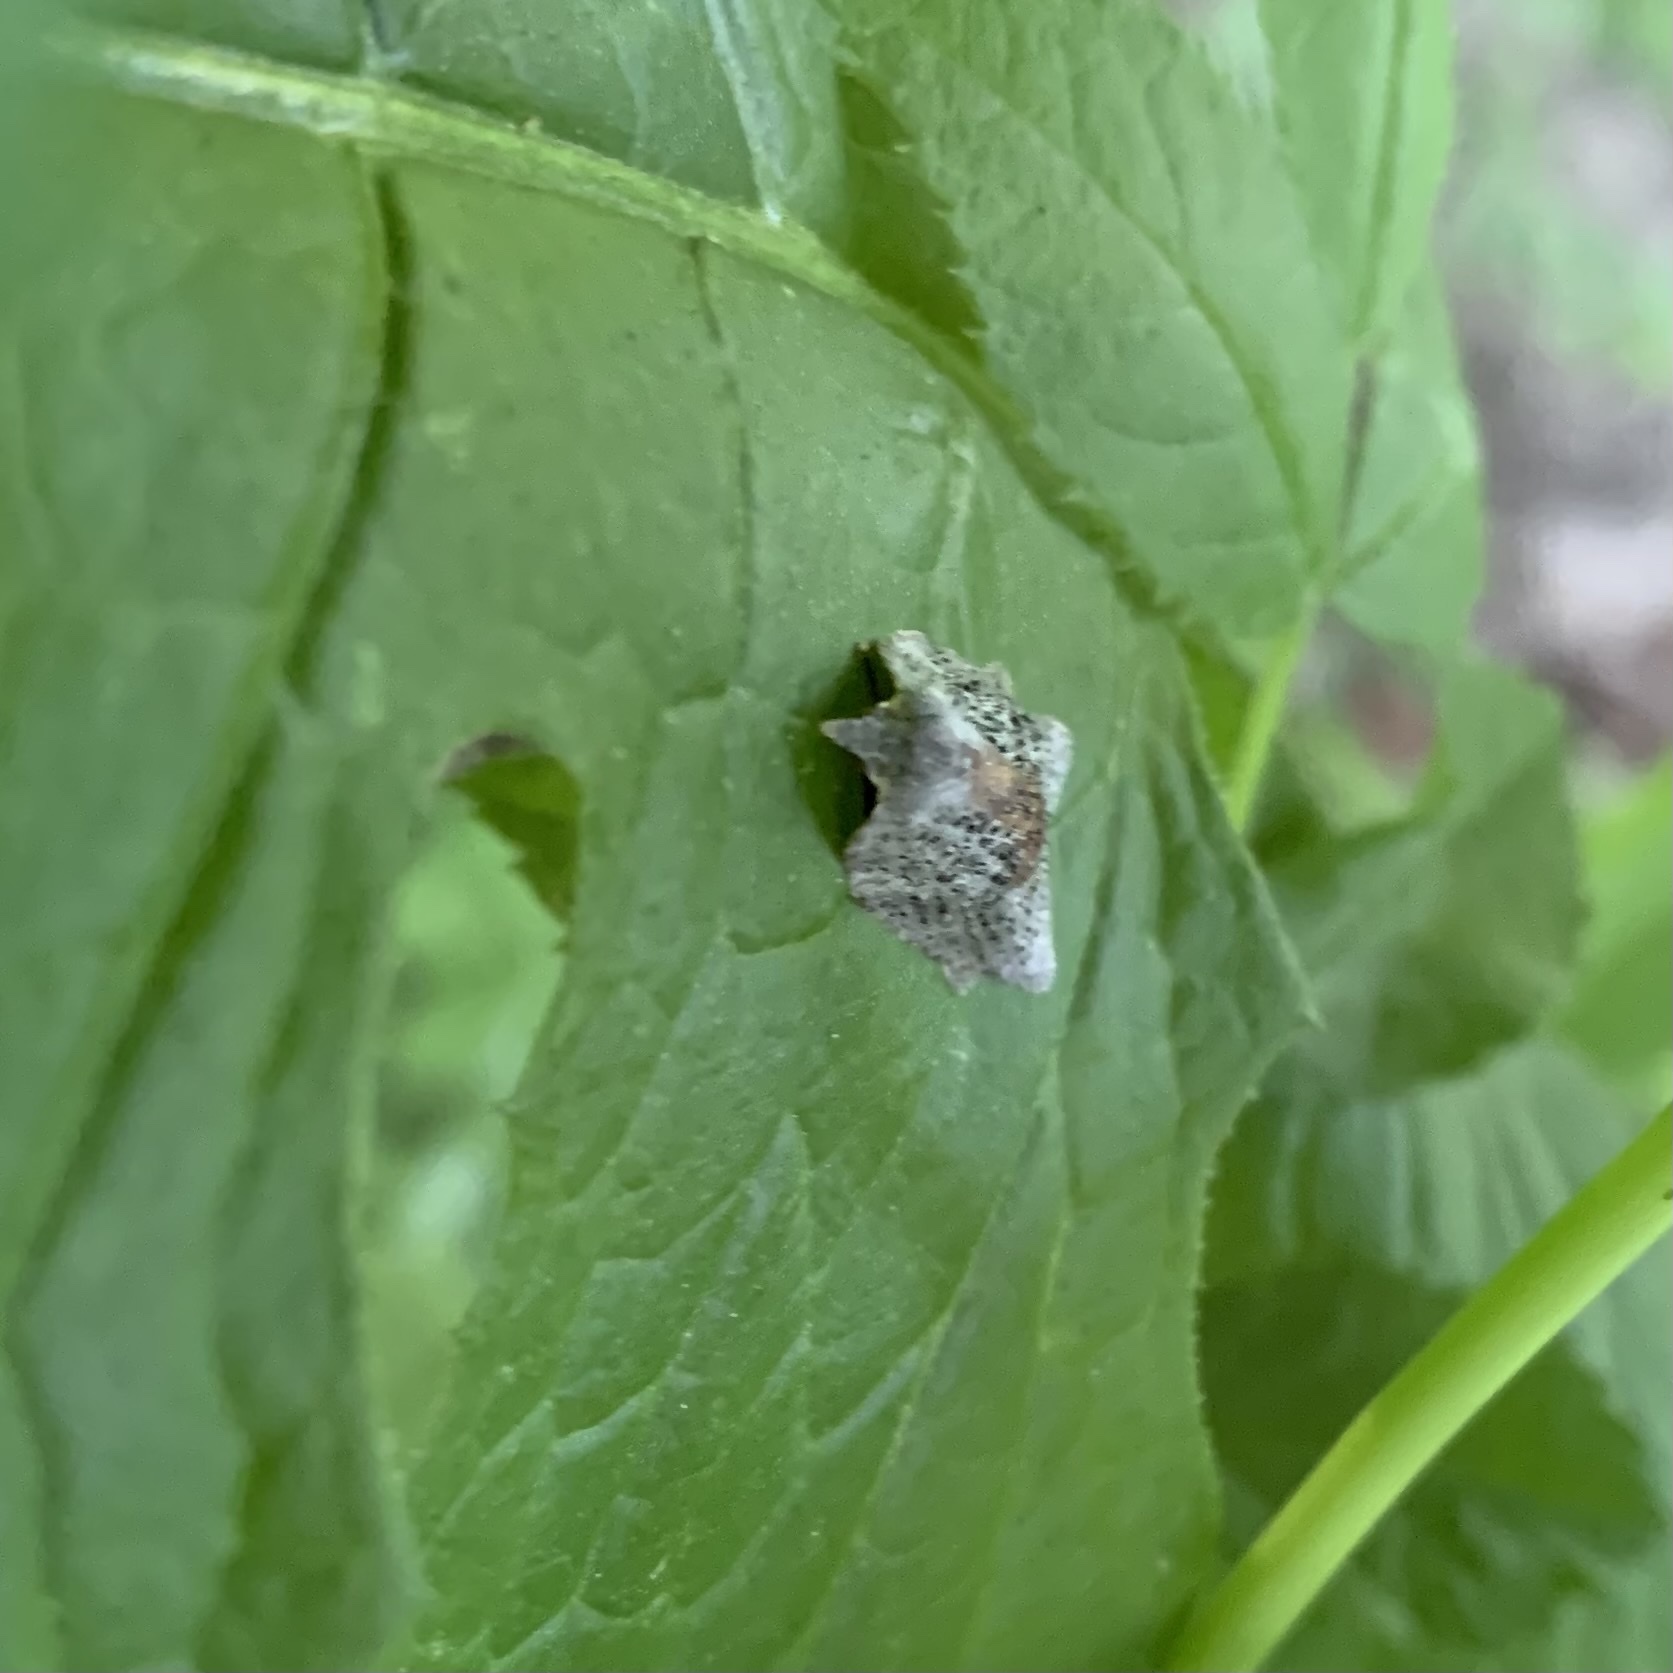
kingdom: Animalia
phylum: Arthropoda
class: Insecta
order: Lepidoptera
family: Tortricidae
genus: Amorbia
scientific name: Amorbia humerosana
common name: White-lined leafroller moth
